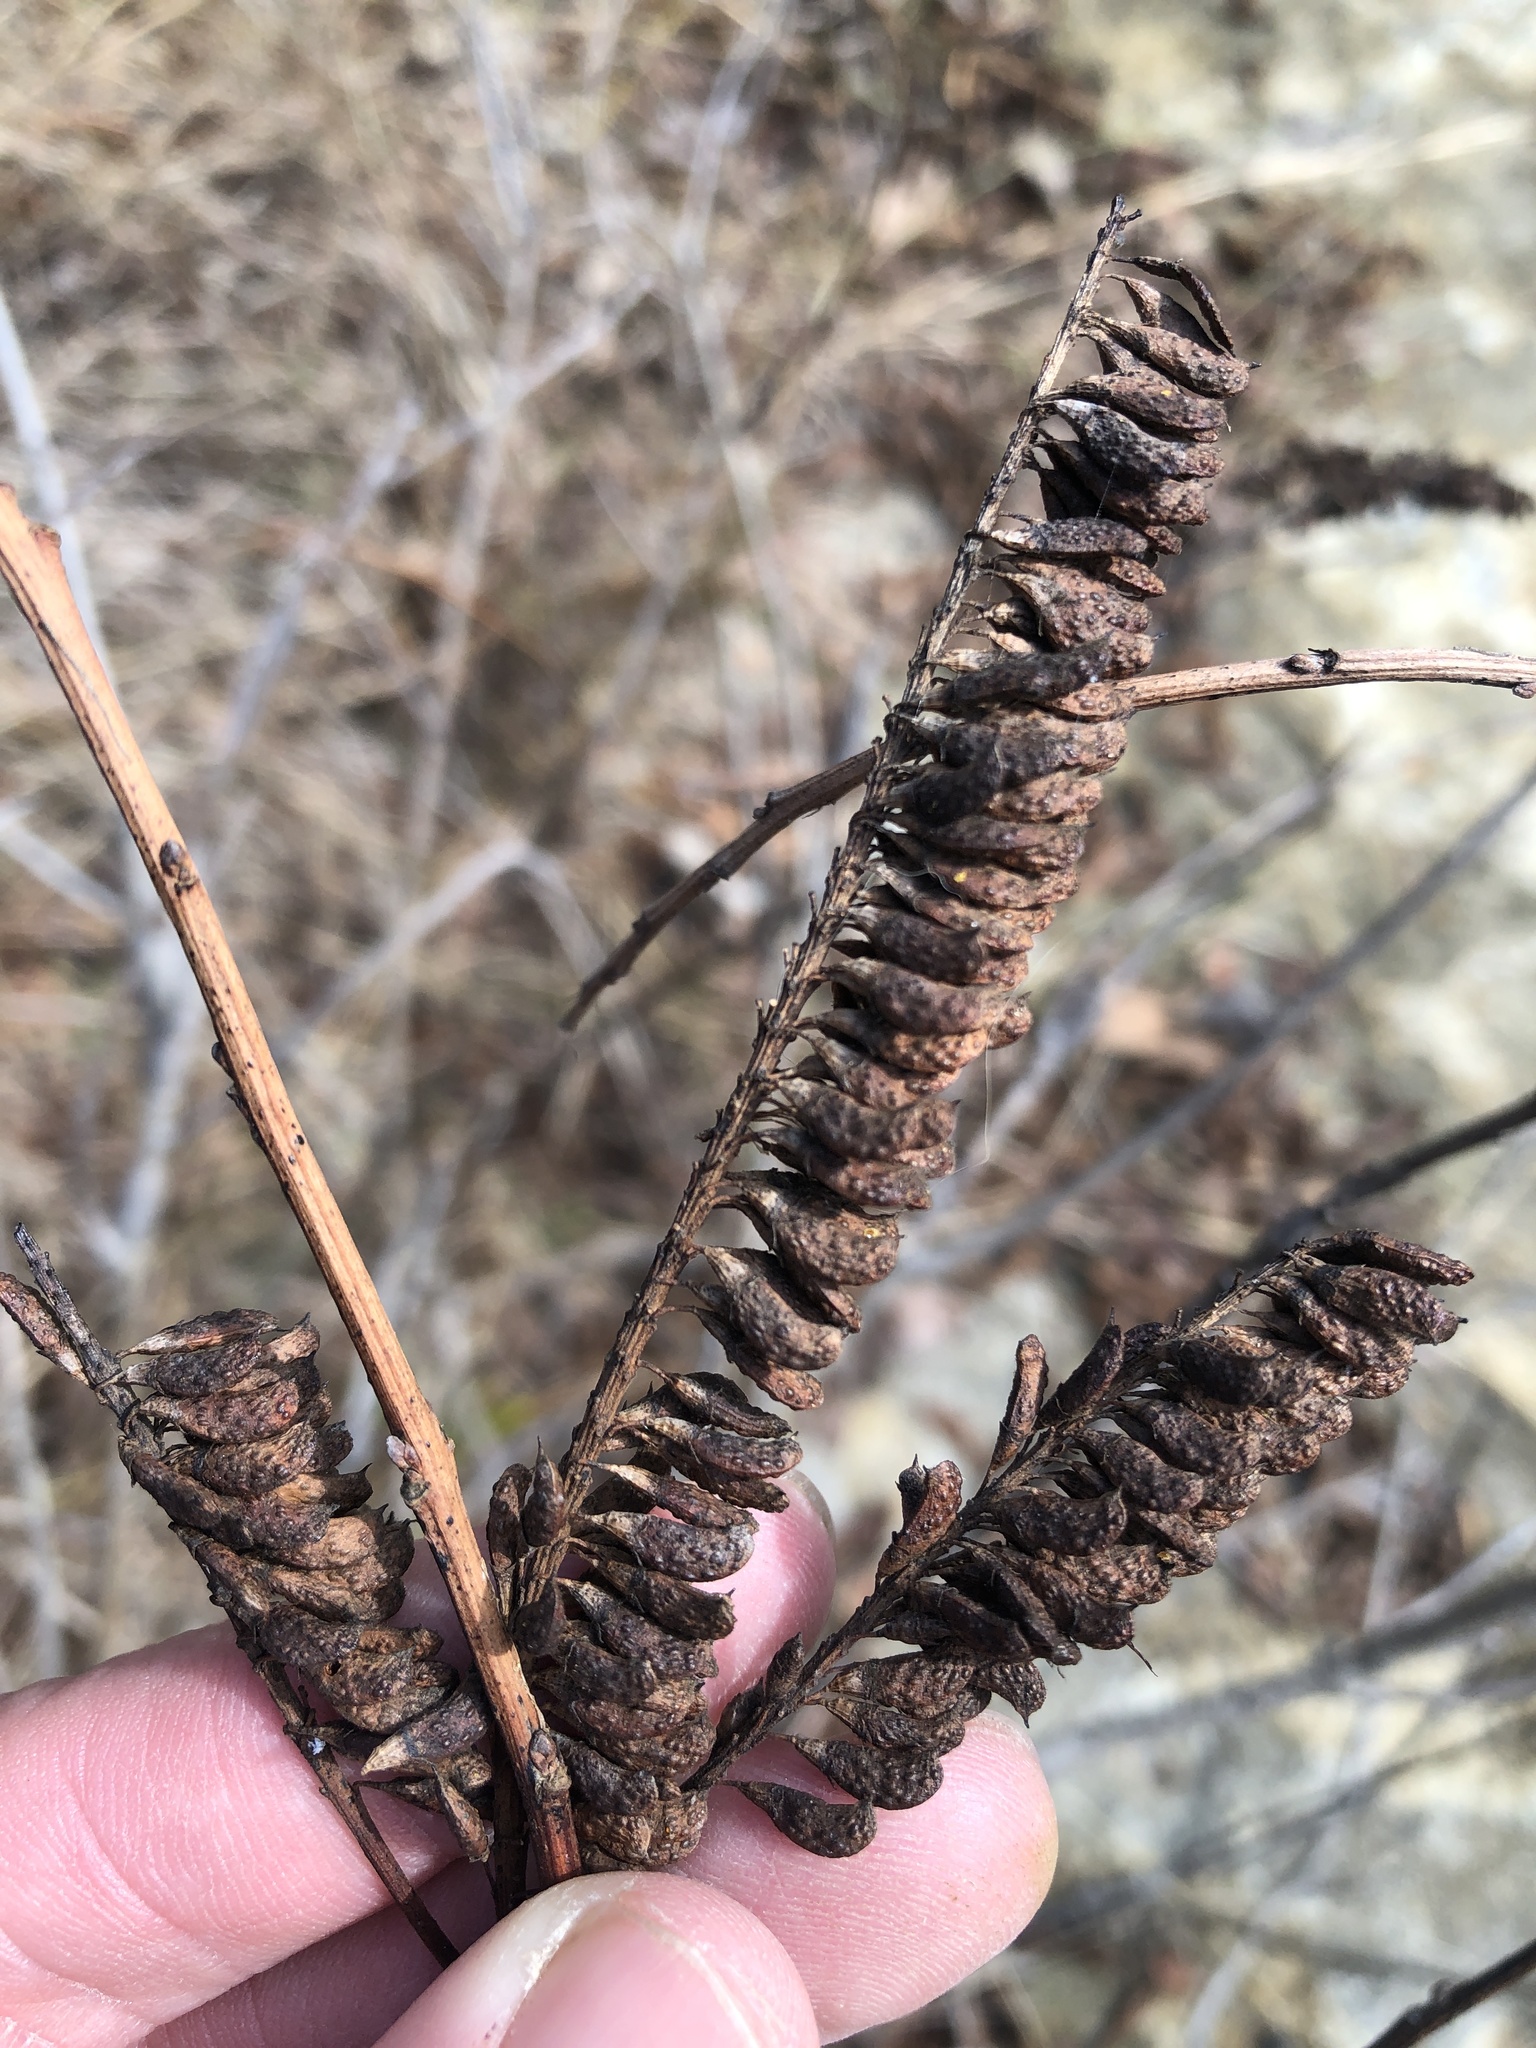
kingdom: Plantae
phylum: Tracheophyta
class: Magnoliopsida
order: Fabales
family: Fabaceae
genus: Amorpha
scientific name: Amorpha fruticosa
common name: False indigo
